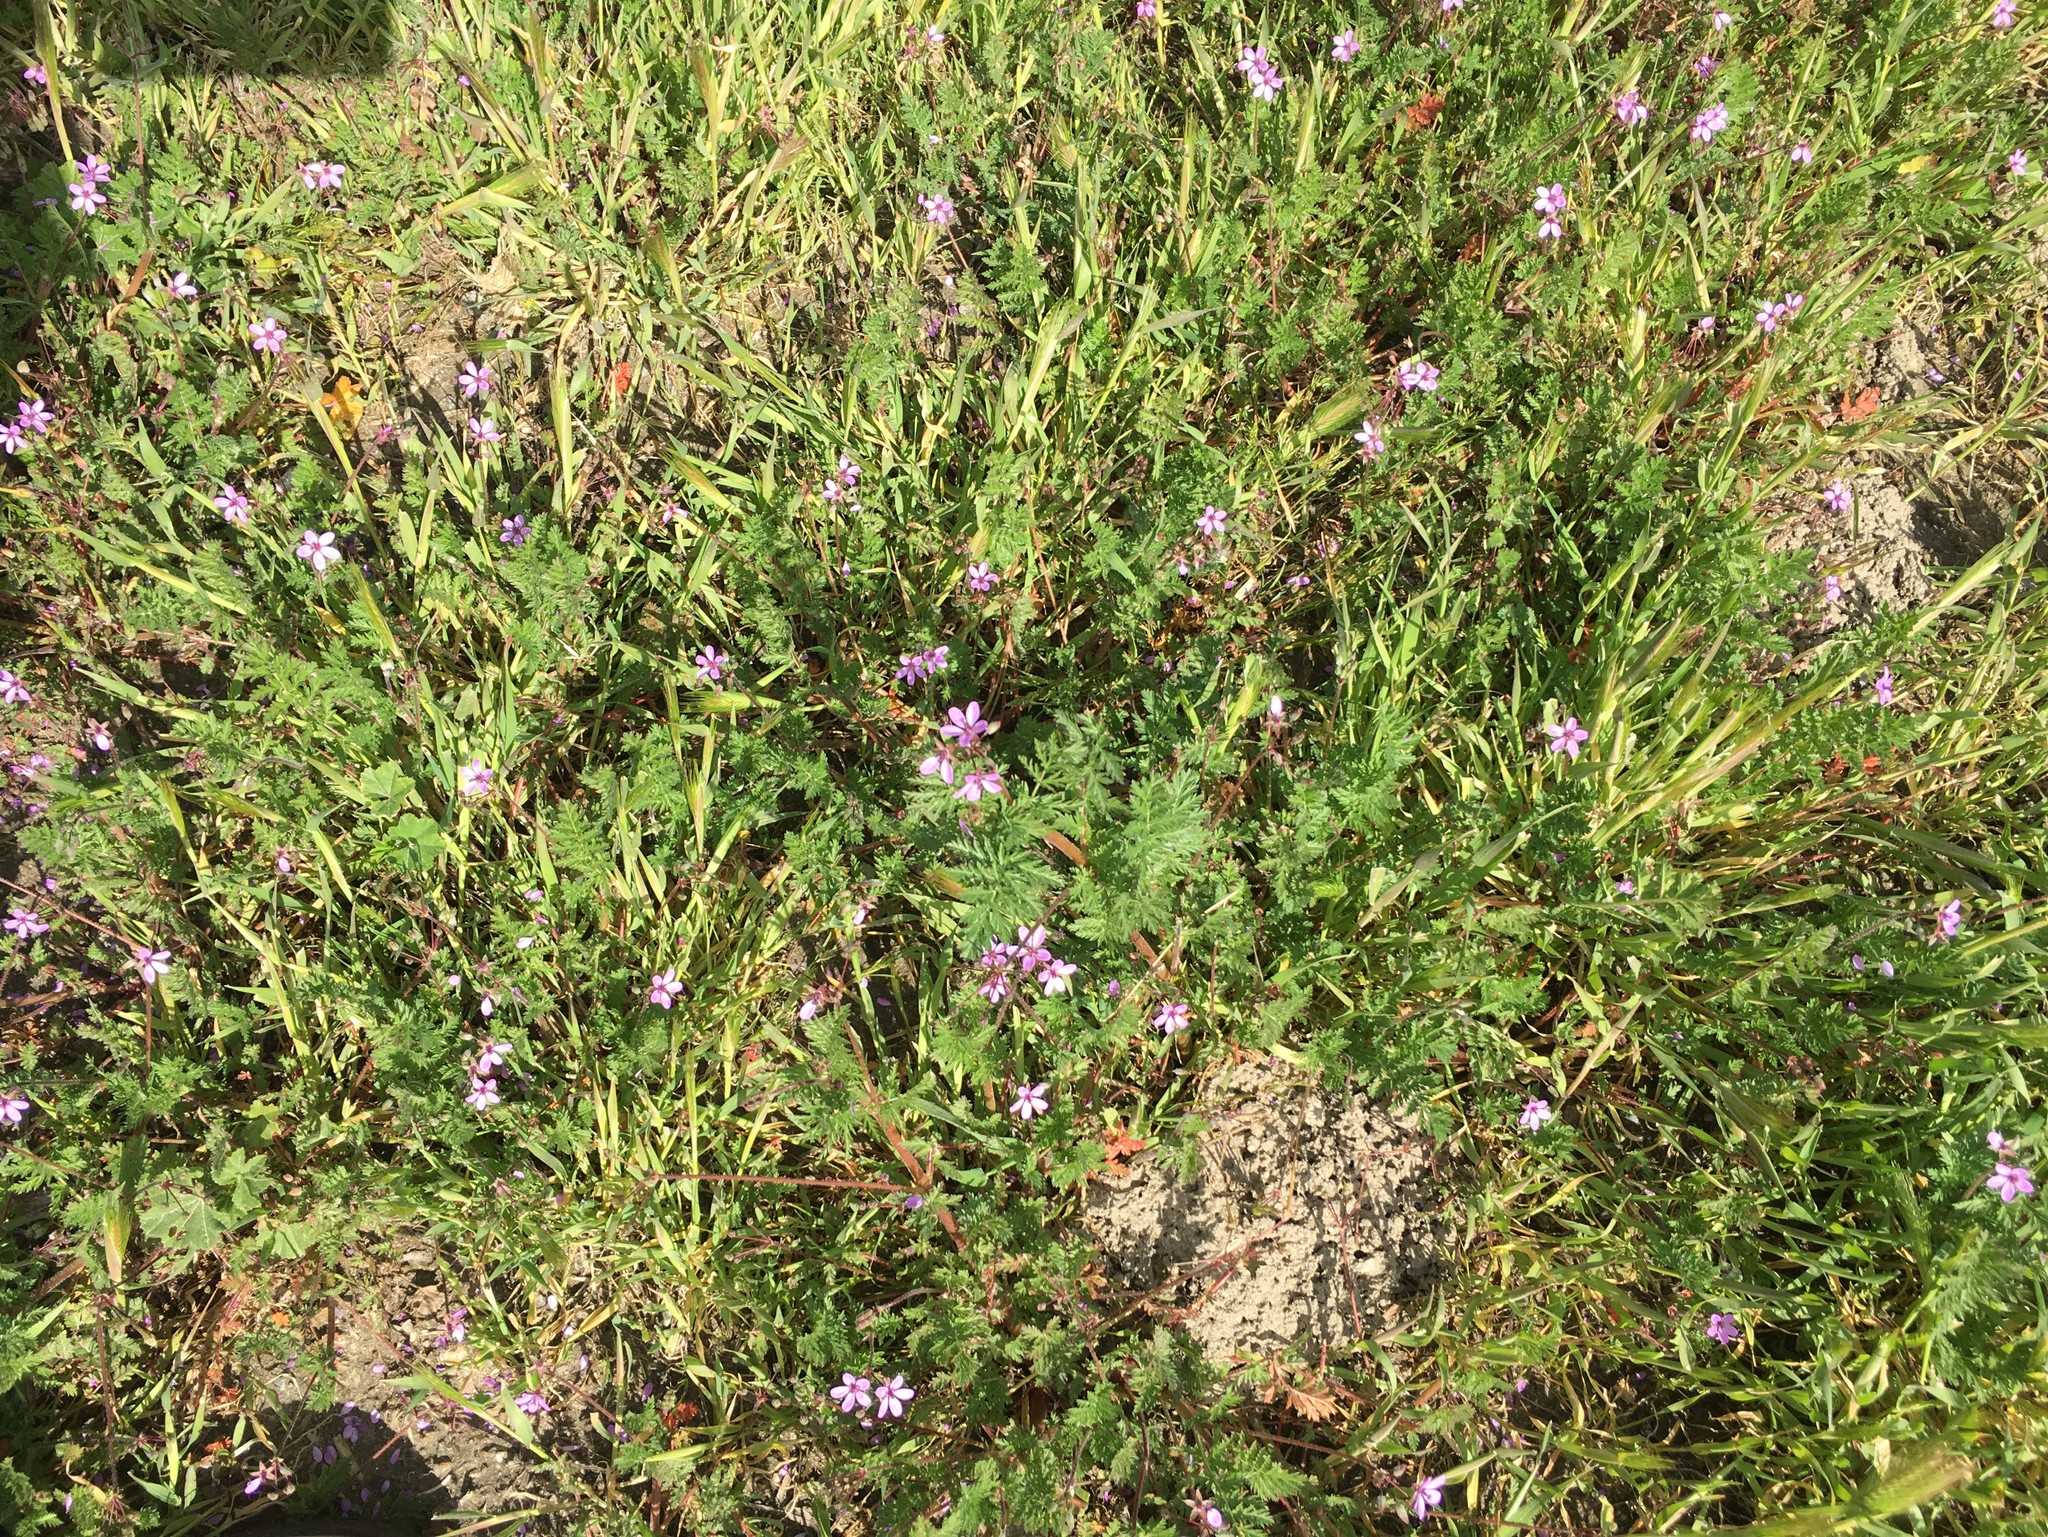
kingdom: Plantae
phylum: Tracheophyta
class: Magnoliopsida
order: Geraniales
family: Geraniaceae
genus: Erodium
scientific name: Erodium cicutarium
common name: Common stork's-bill
